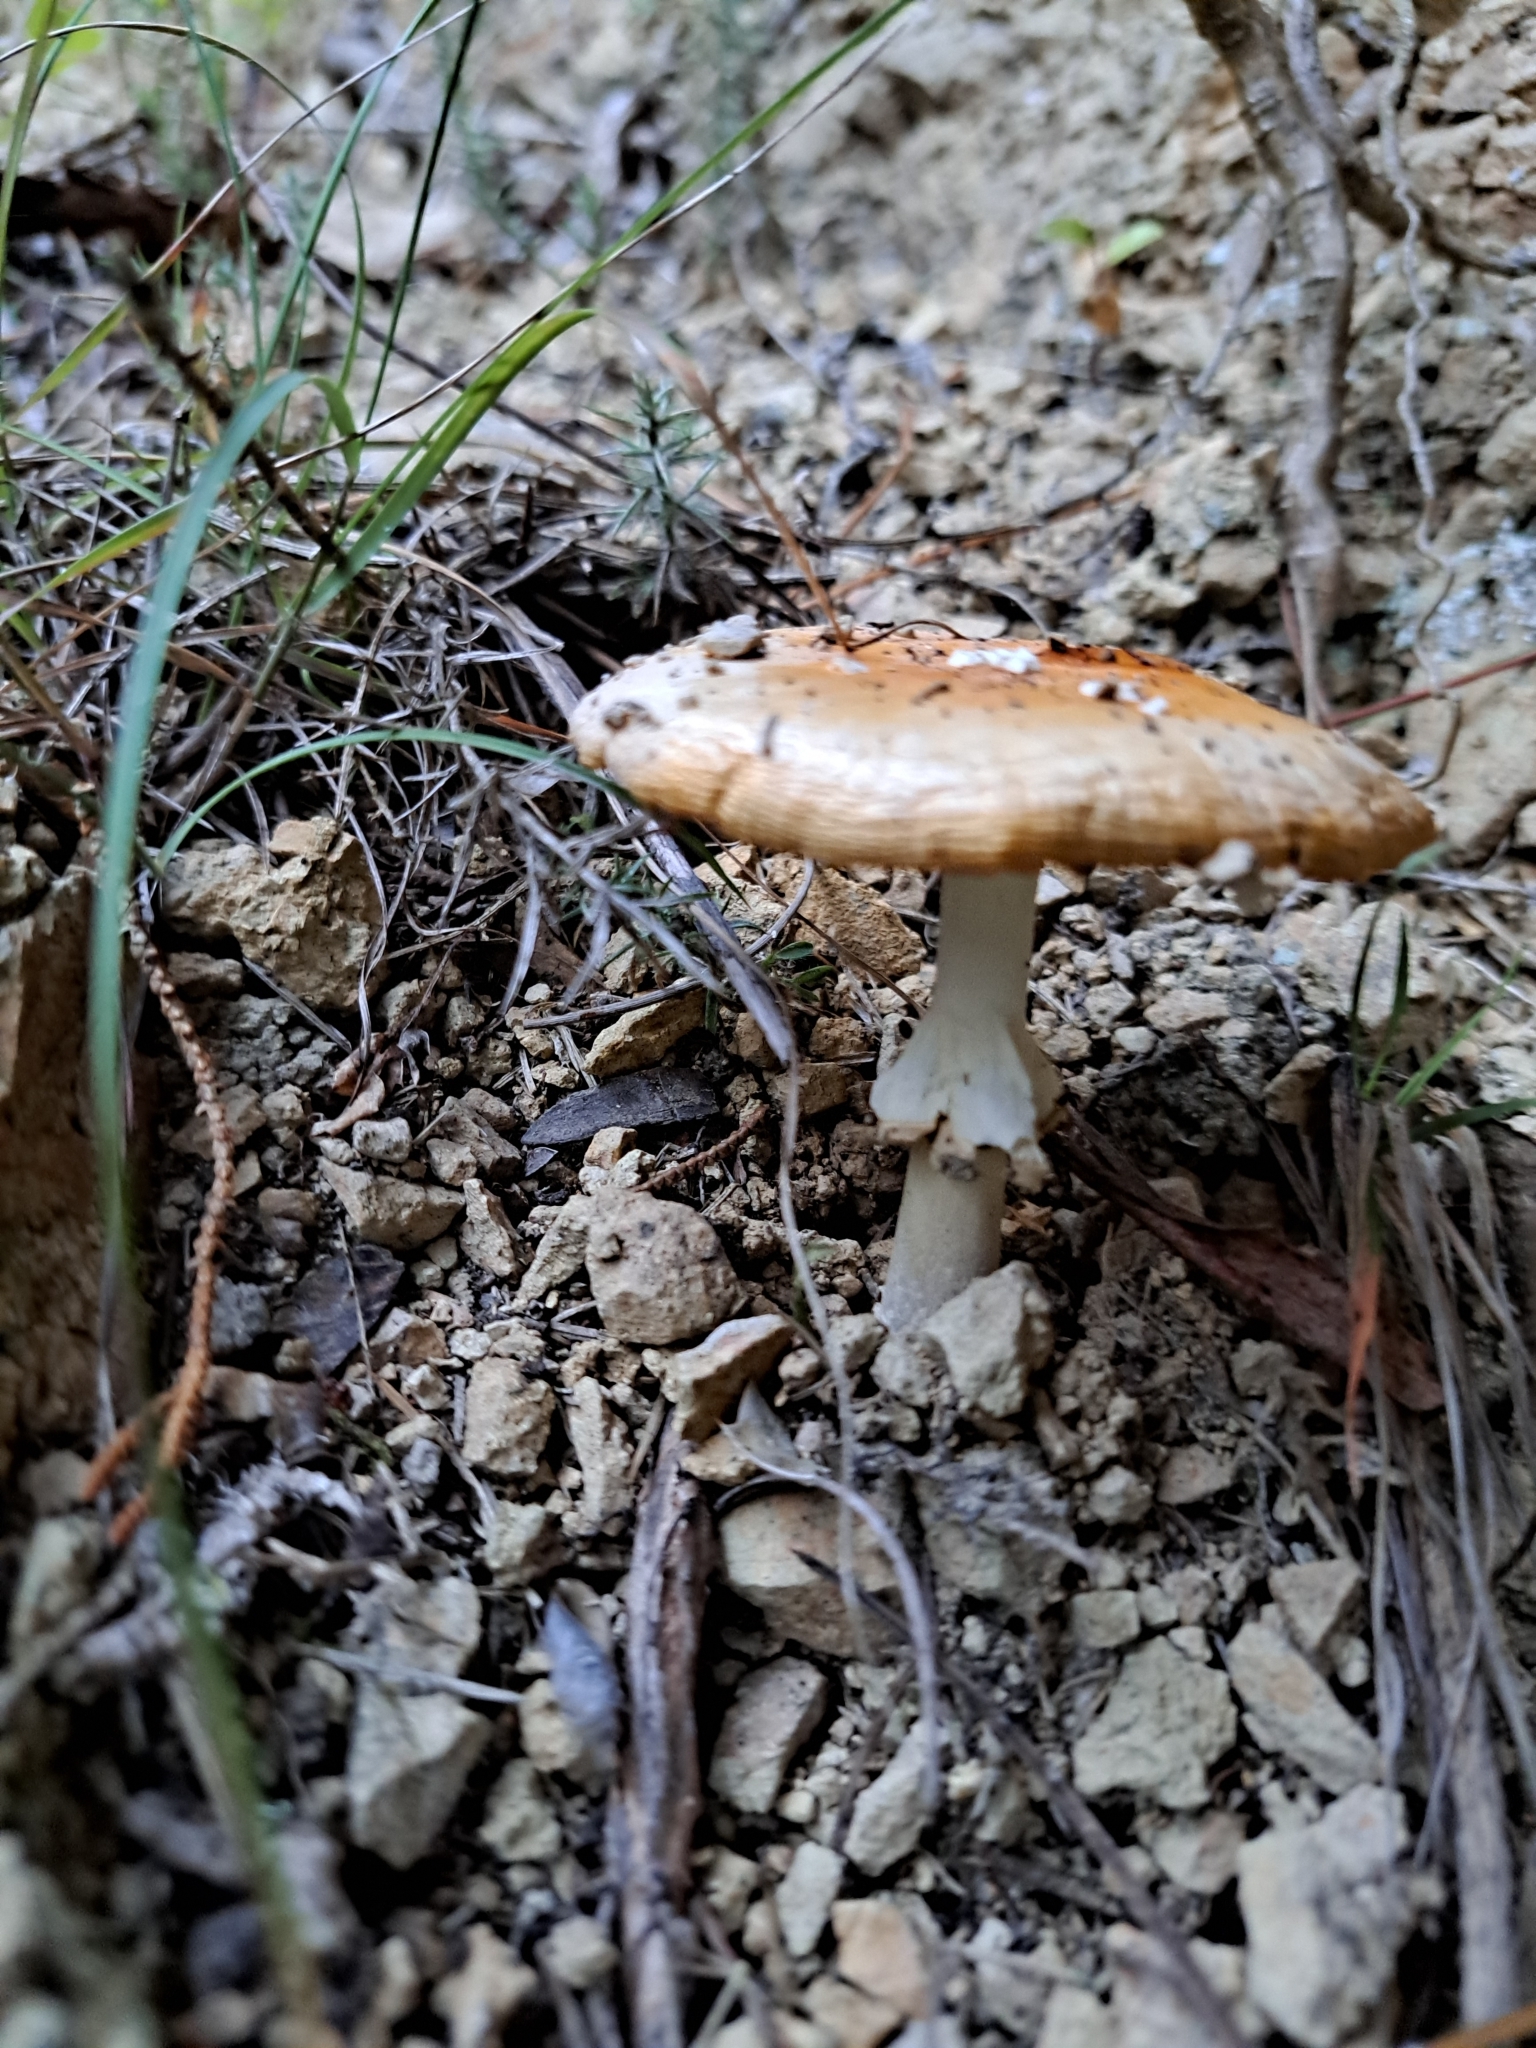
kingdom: Fungi
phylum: Basidiomycota
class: Agaricomycetes
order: Agaricales
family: Amanitaceae
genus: Amanita
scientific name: Amanita muscaria
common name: Fly agaric
